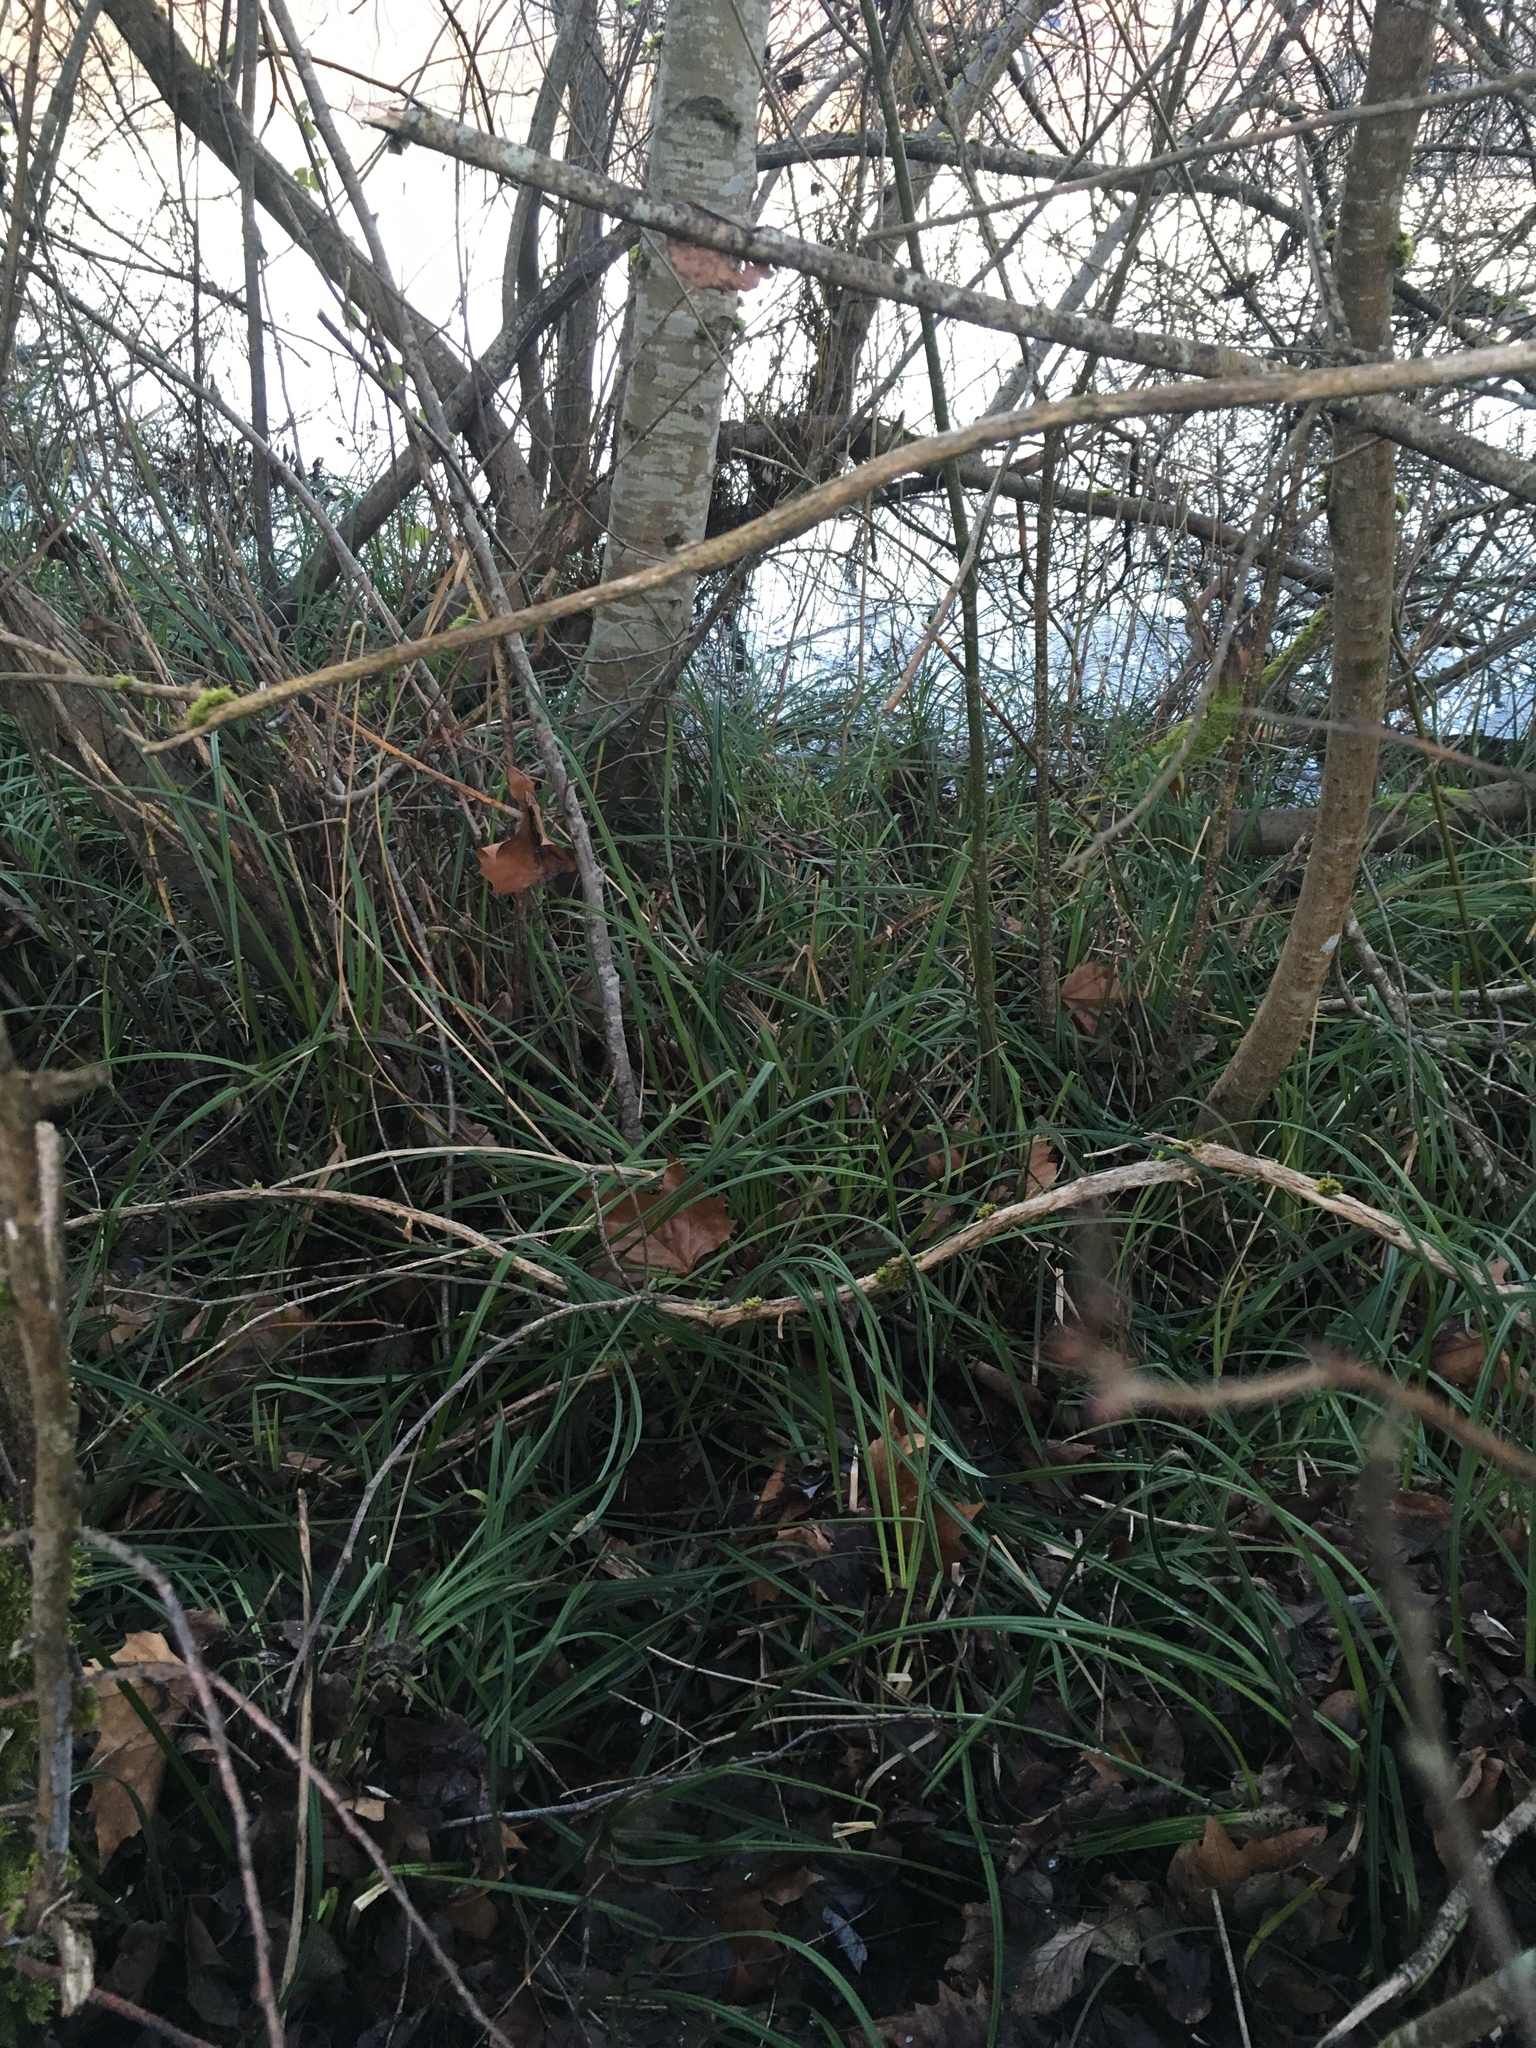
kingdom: Plantae
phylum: Tracheophyta
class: Liliopsida
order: Poales
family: Cyperaceae
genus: Carex
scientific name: Carex obnupta
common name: Slough sedge
